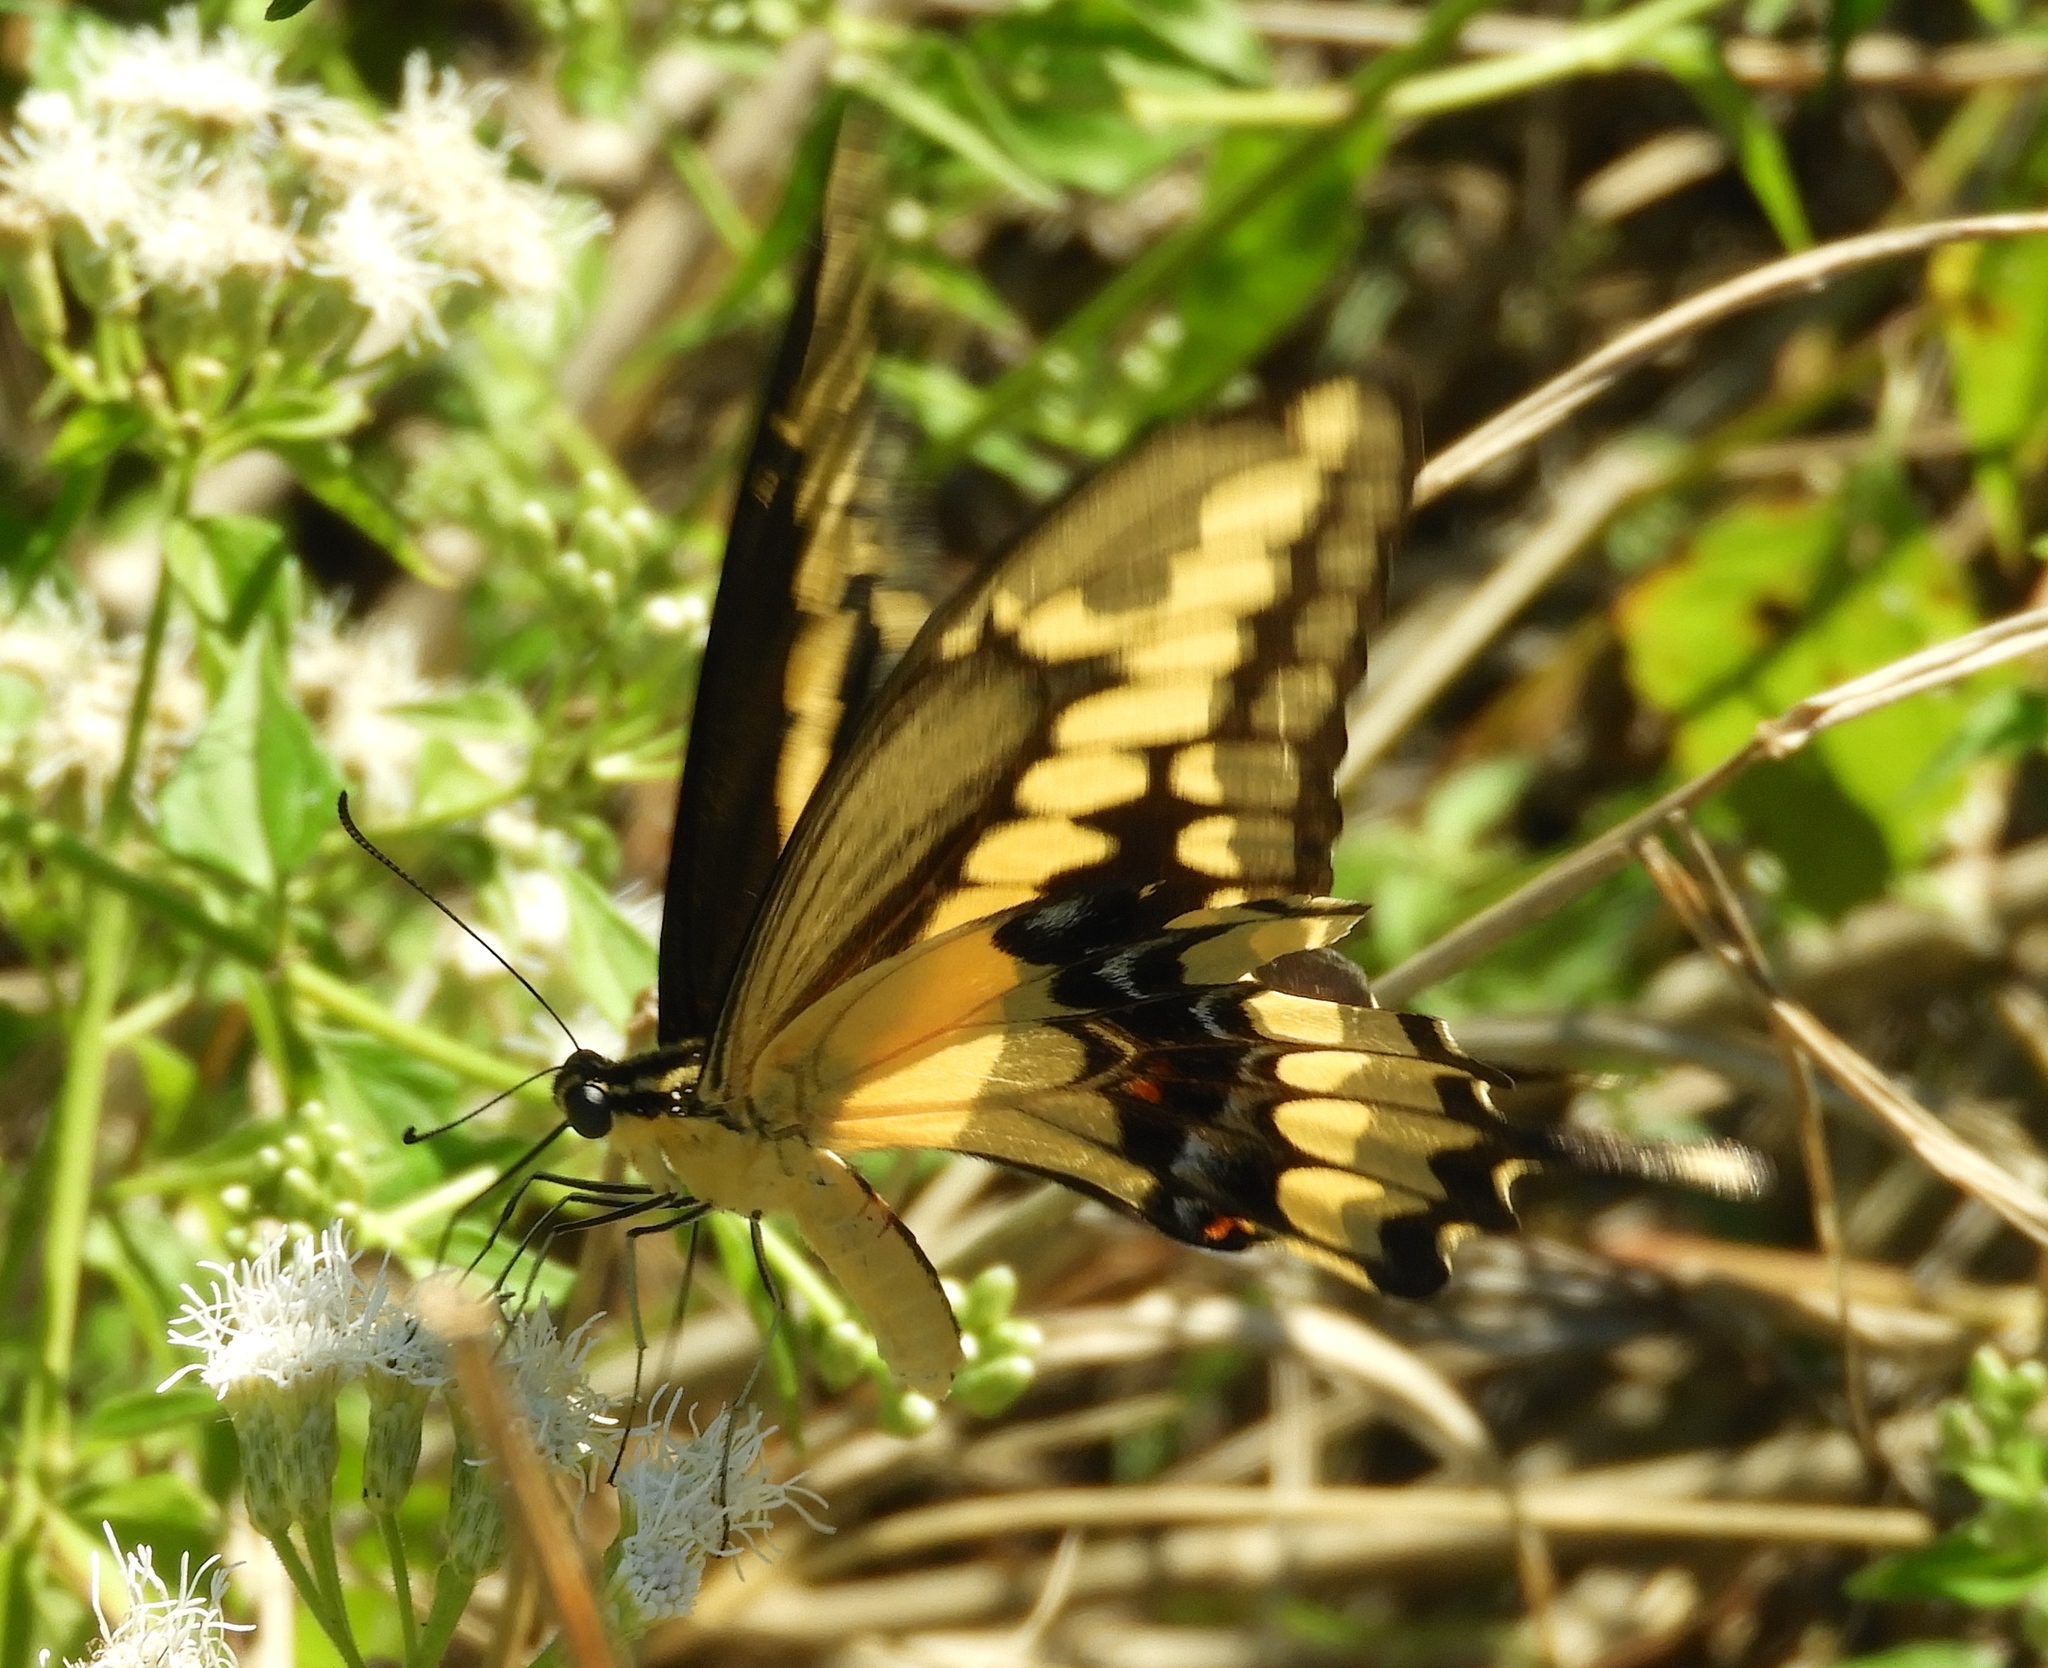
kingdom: Animalia
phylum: Arthropoda
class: Insecta
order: Lepidoptera
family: Papilionidae
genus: Papilio
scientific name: Papilio rumiko
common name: Western giant swallowtail
